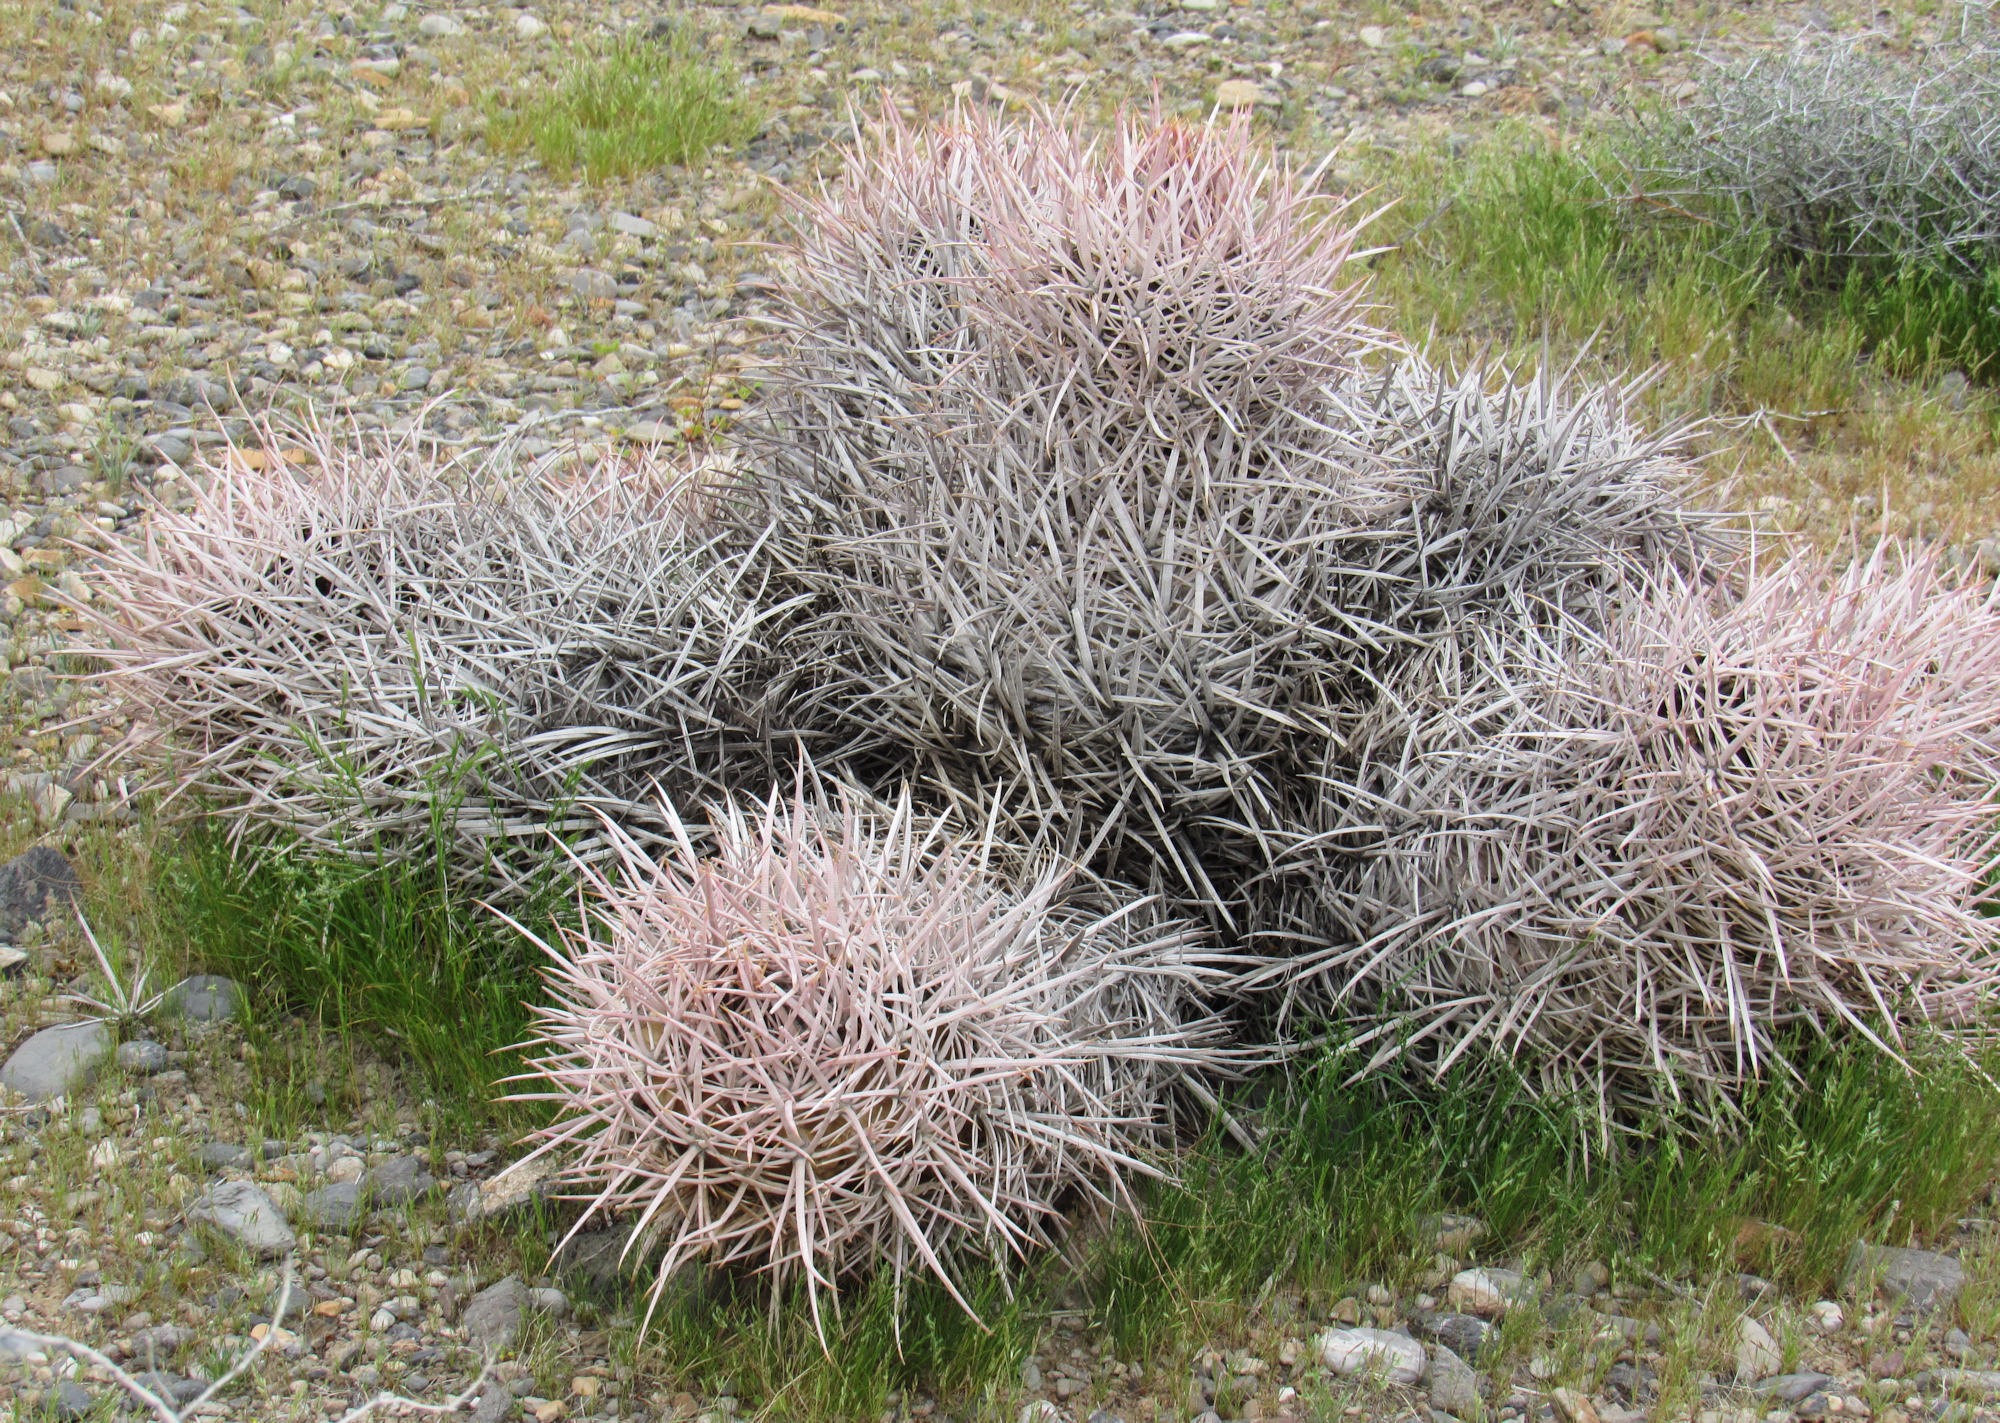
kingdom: Plantae
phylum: Tracheophyta
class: Magnoliopsida
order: Caryophyllales
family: Cactaceae
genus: Echinocactus
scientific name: Echinocactus polycephalus
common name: Cottontop cactus
